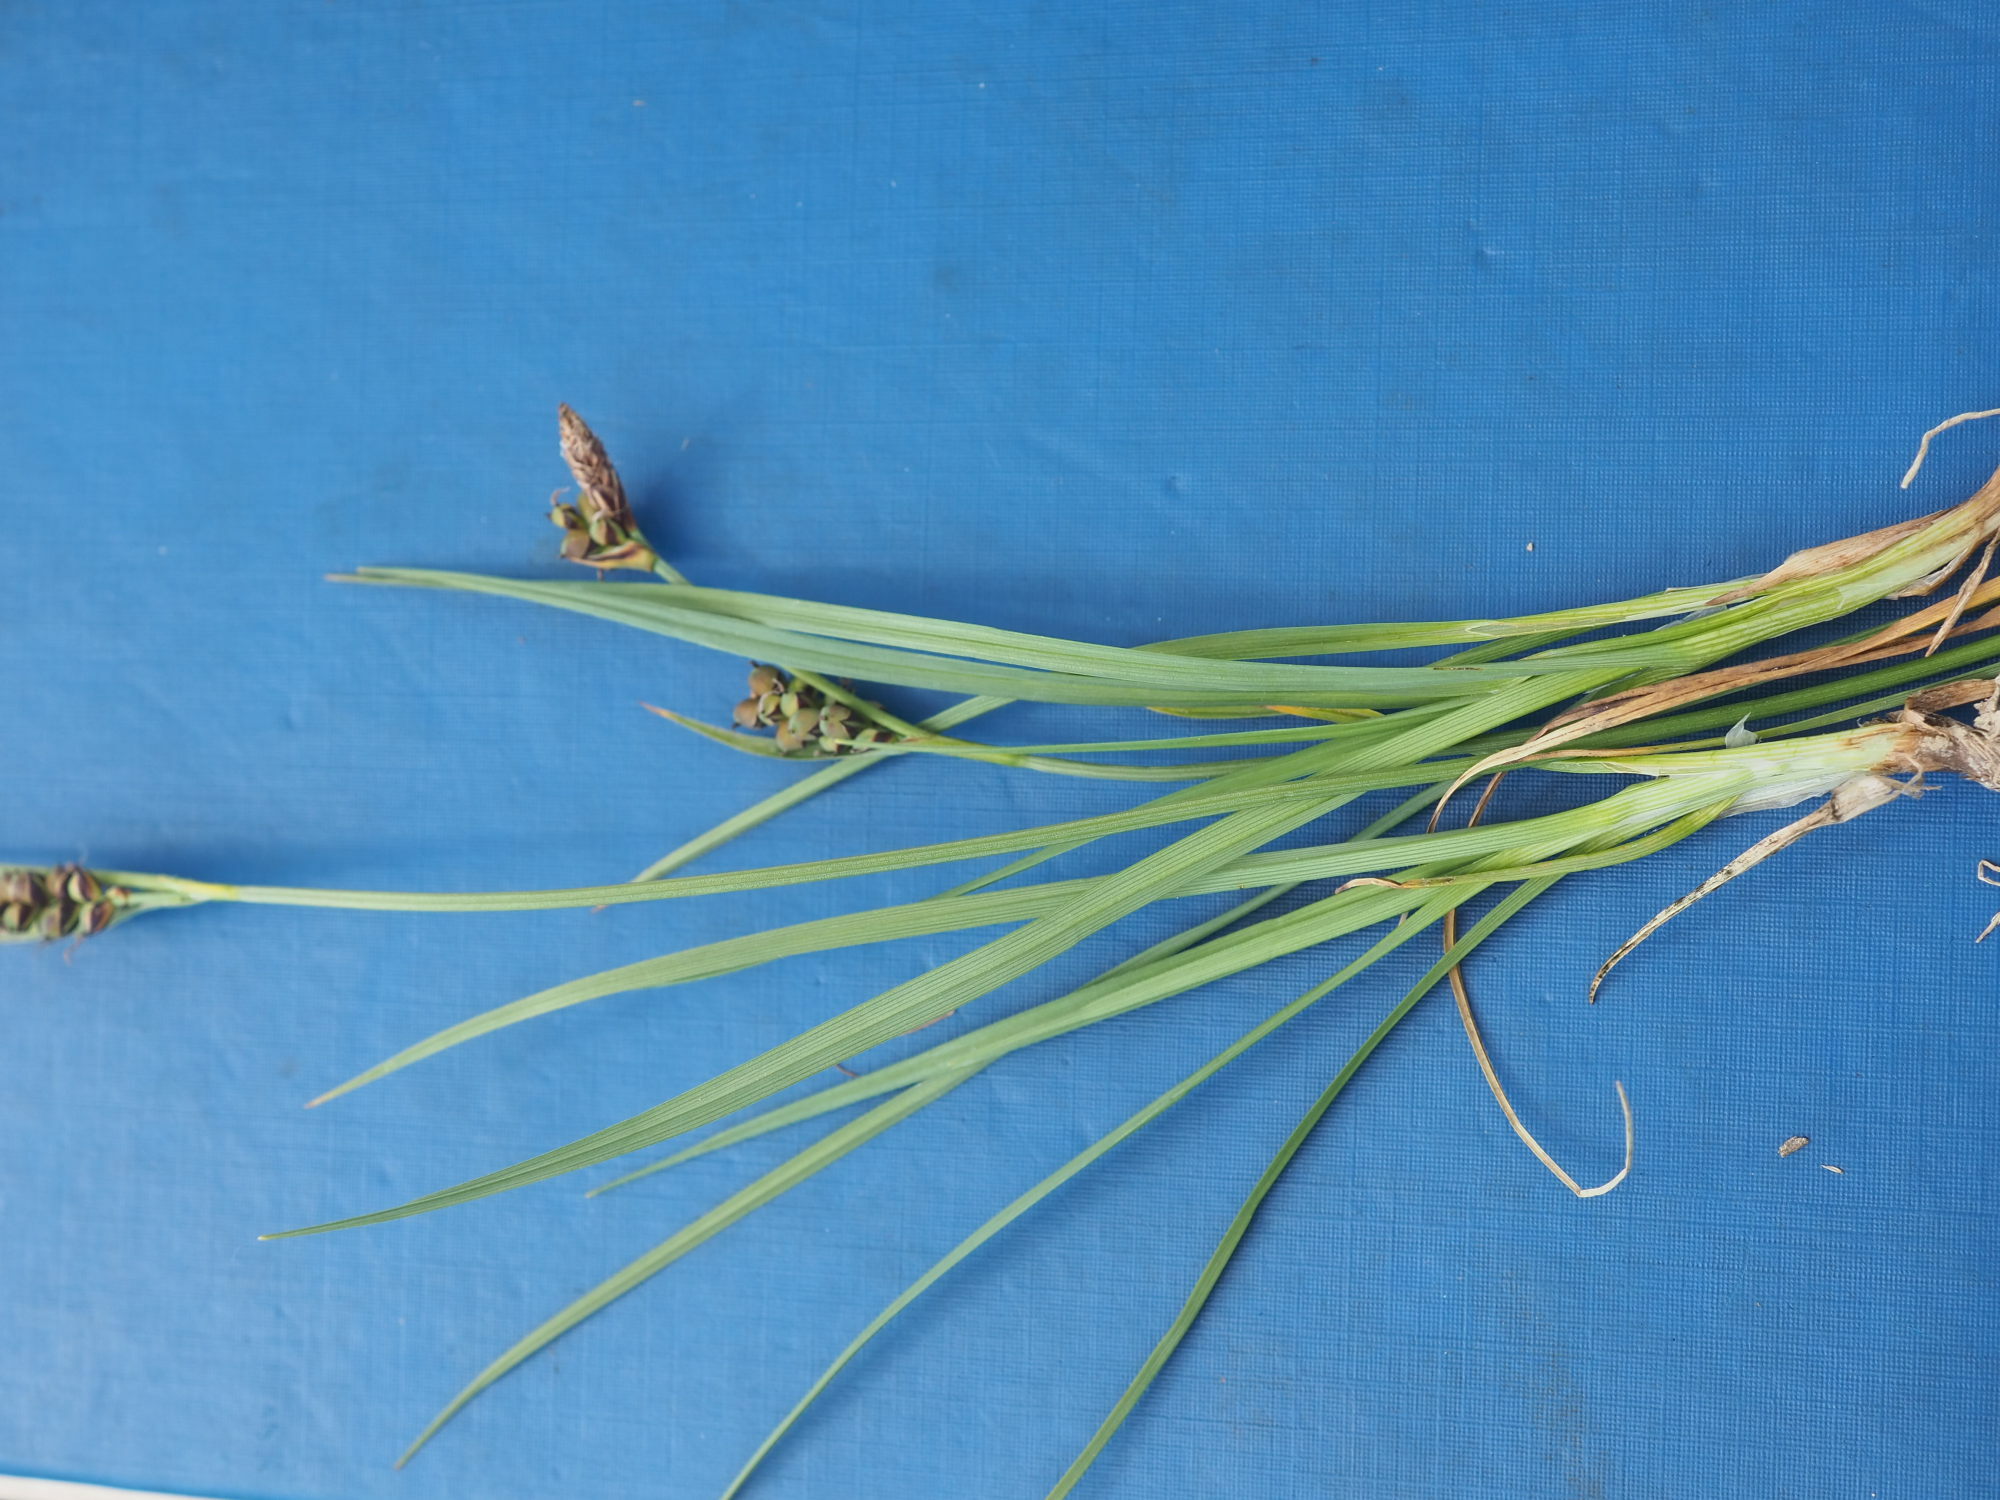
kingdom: Plantae
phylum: Tracheophyta
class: Liliopsida
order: Poales
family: Cyperaceae
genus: Carex
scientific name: Carex panicea
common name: Carnation sedge
